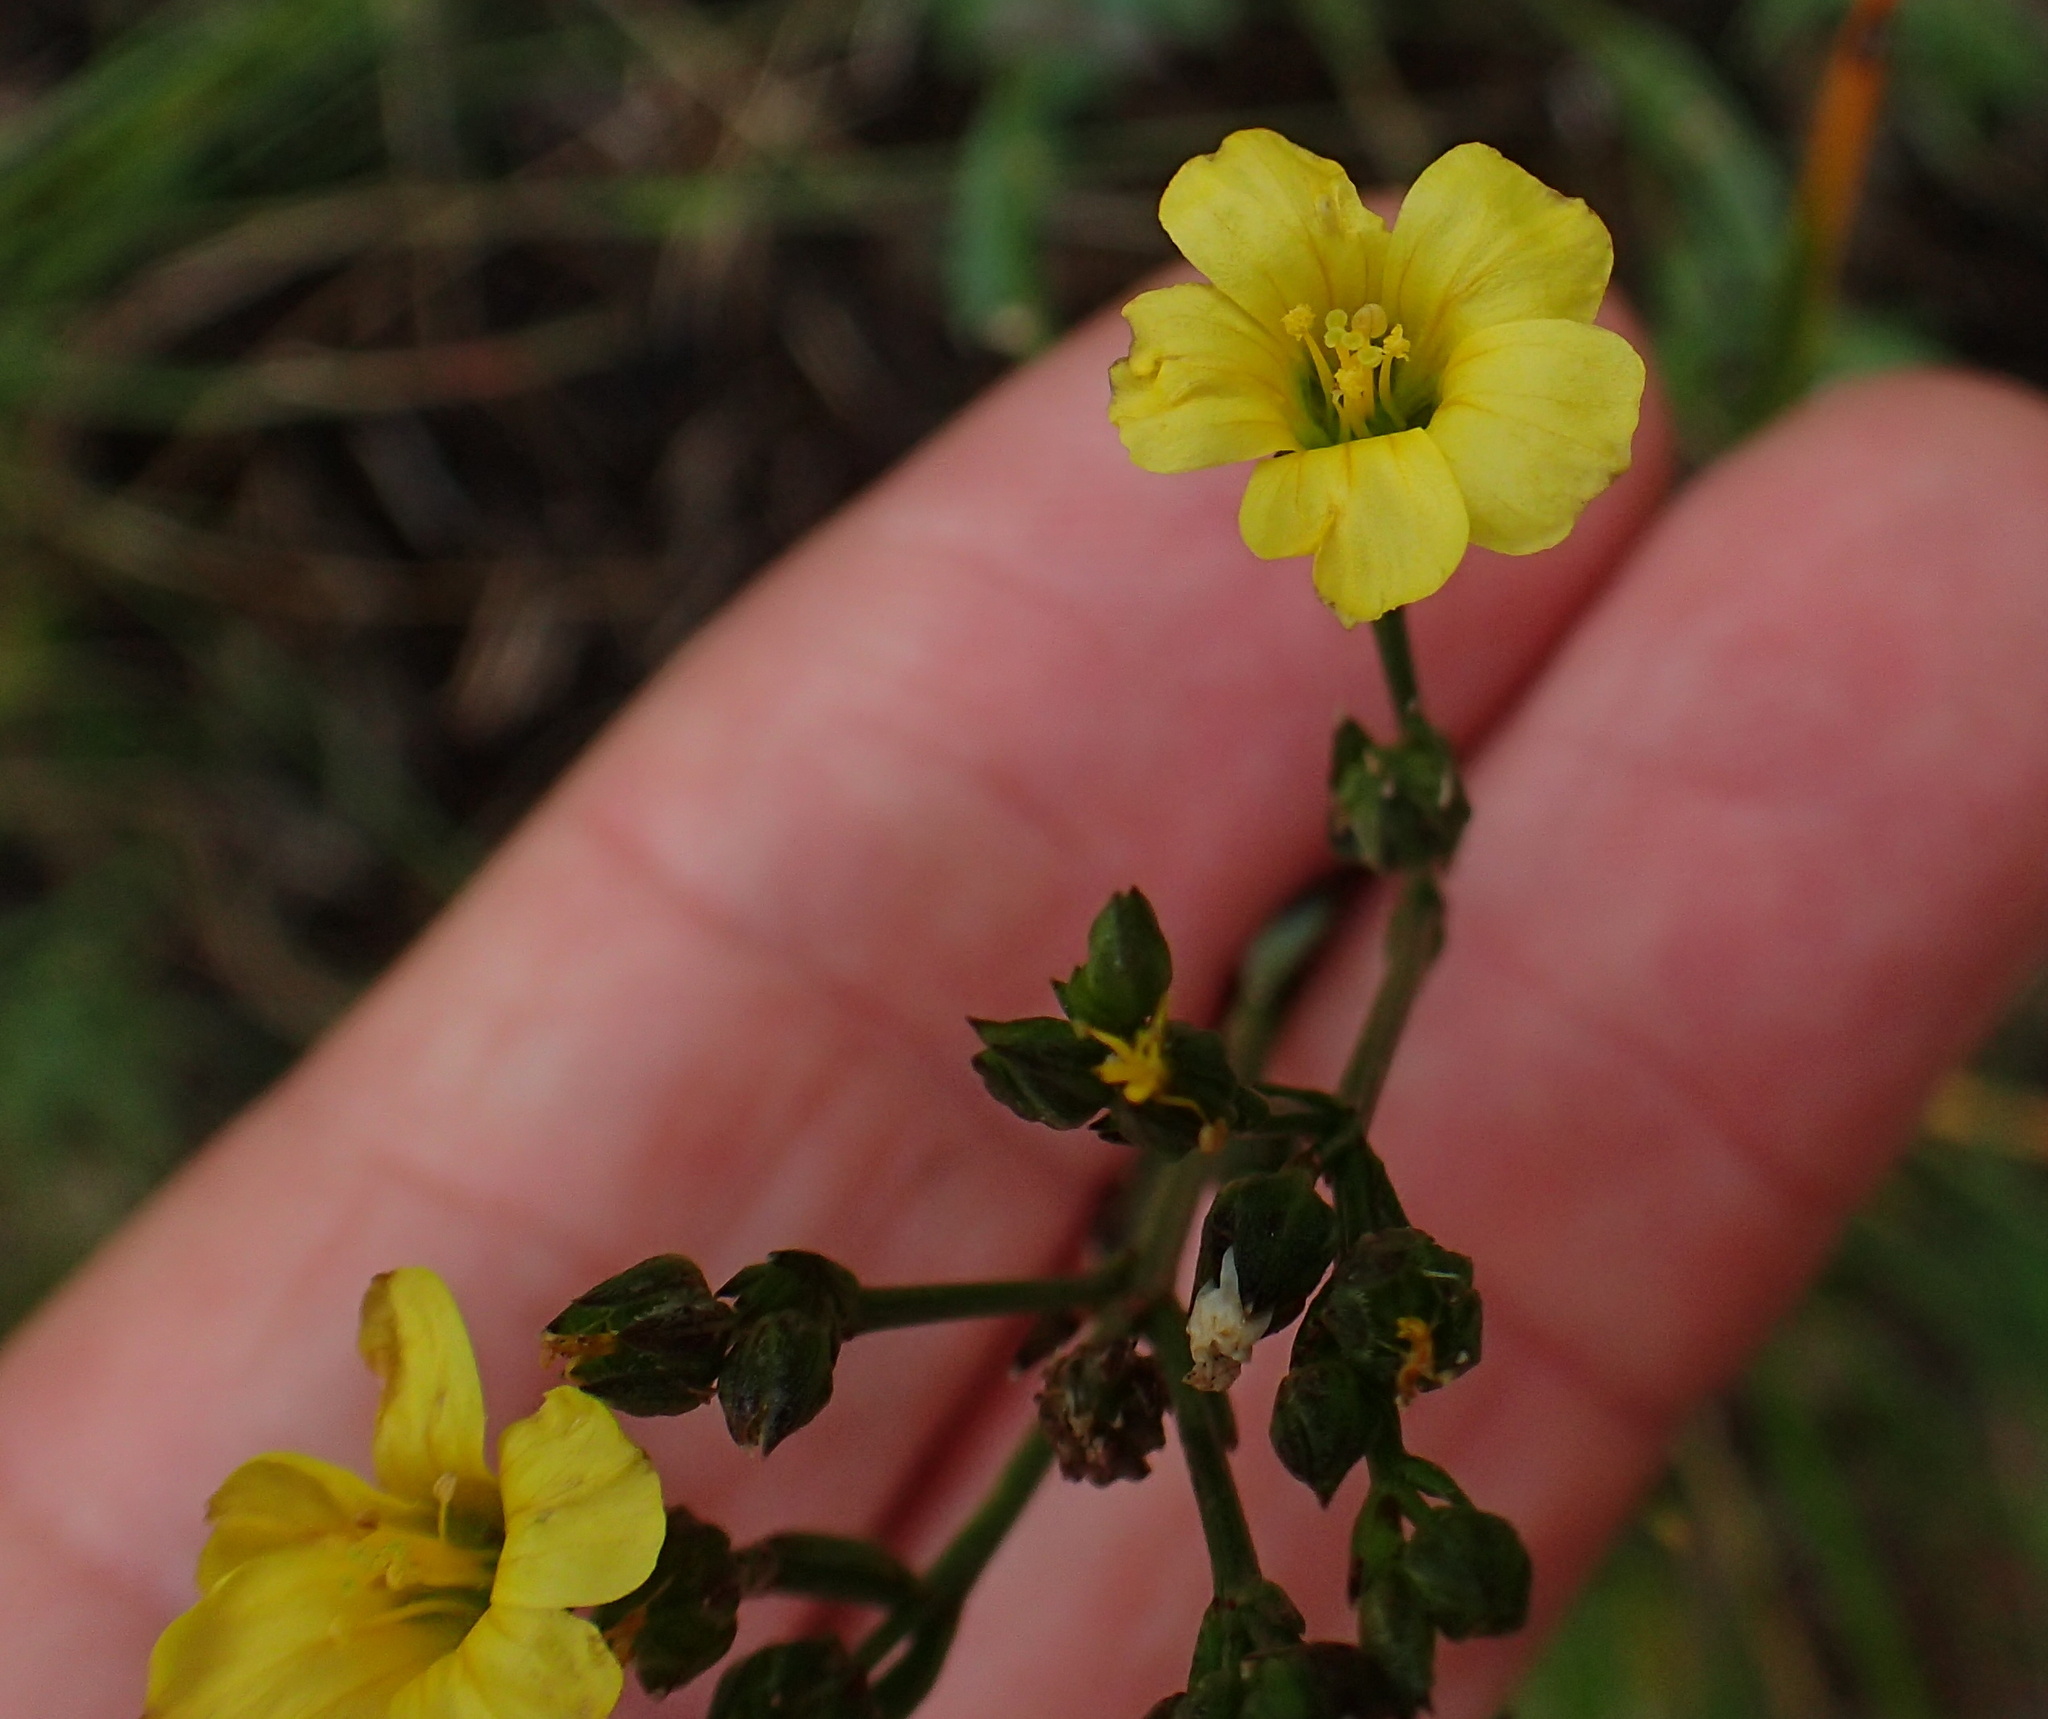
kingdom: Plantae
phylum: Tracheophyta
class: Magnoliopsida
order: Malpighiales
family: Linaceae
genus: Linum
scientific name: Linum thunbergii
